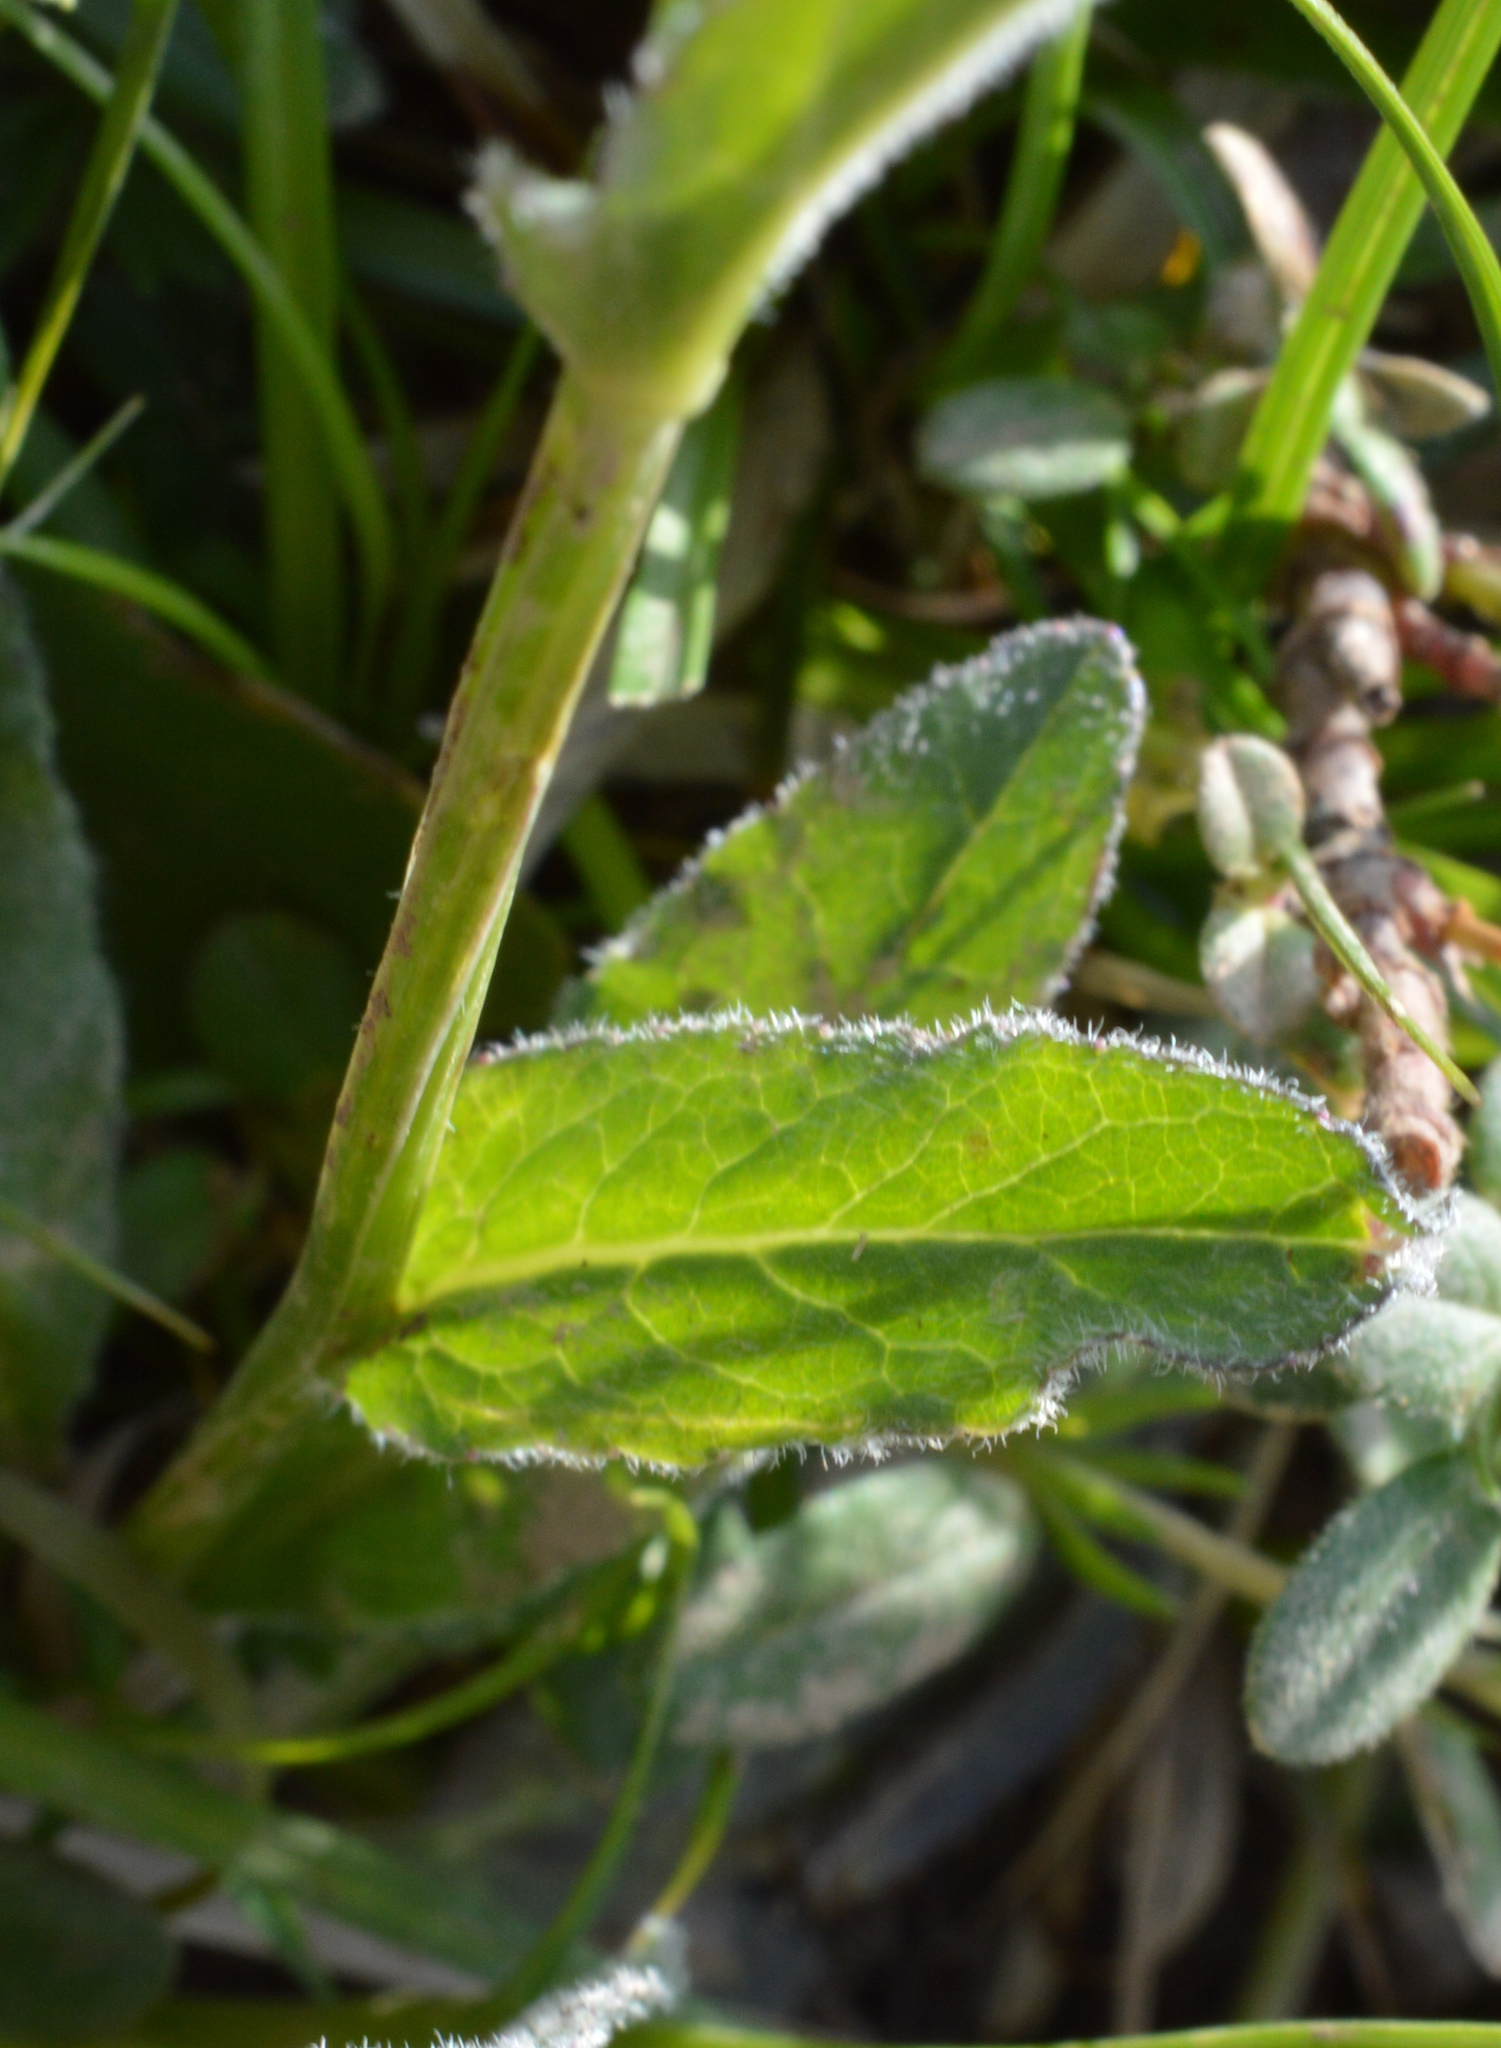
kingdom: Plantae
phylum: Tracheophyta
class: Magnoliopsida
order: Asterales
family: Campanulaceae
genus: Phyteuma
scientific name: Phyteuma orbiculare
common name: Round-headed rampion
